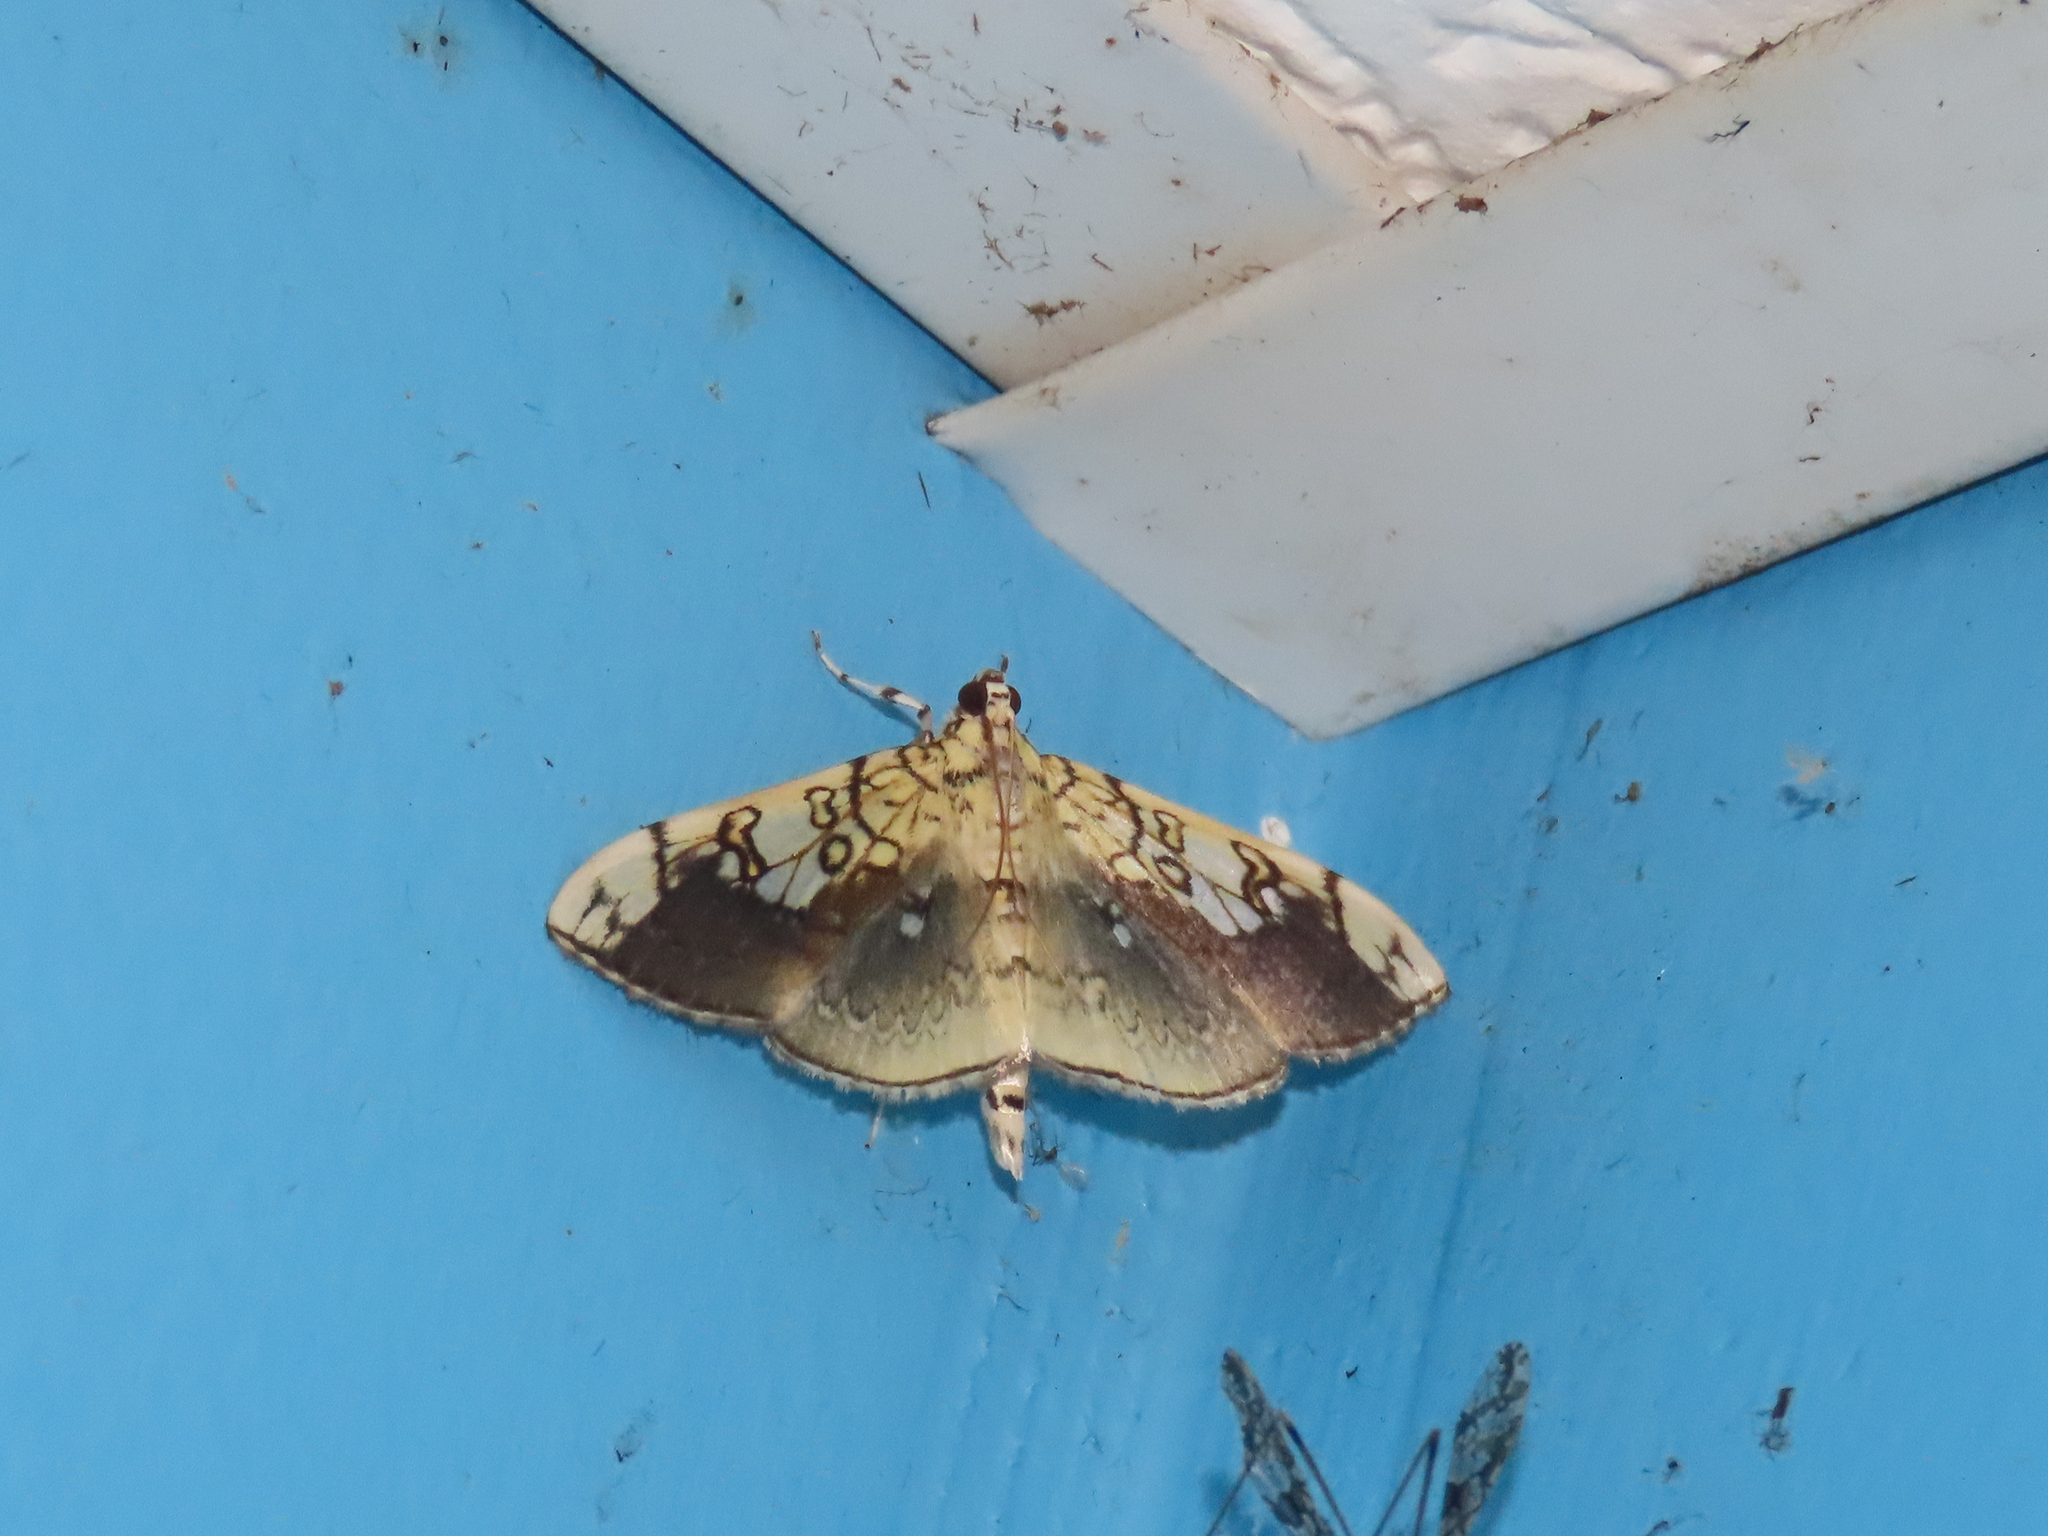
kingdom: Animalia
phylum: Arthropoda
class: Insecta
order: Lepidoptera
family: Crambidae
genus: Pantographa
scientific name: Pantographa limata
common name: Basswood leafroller moth
